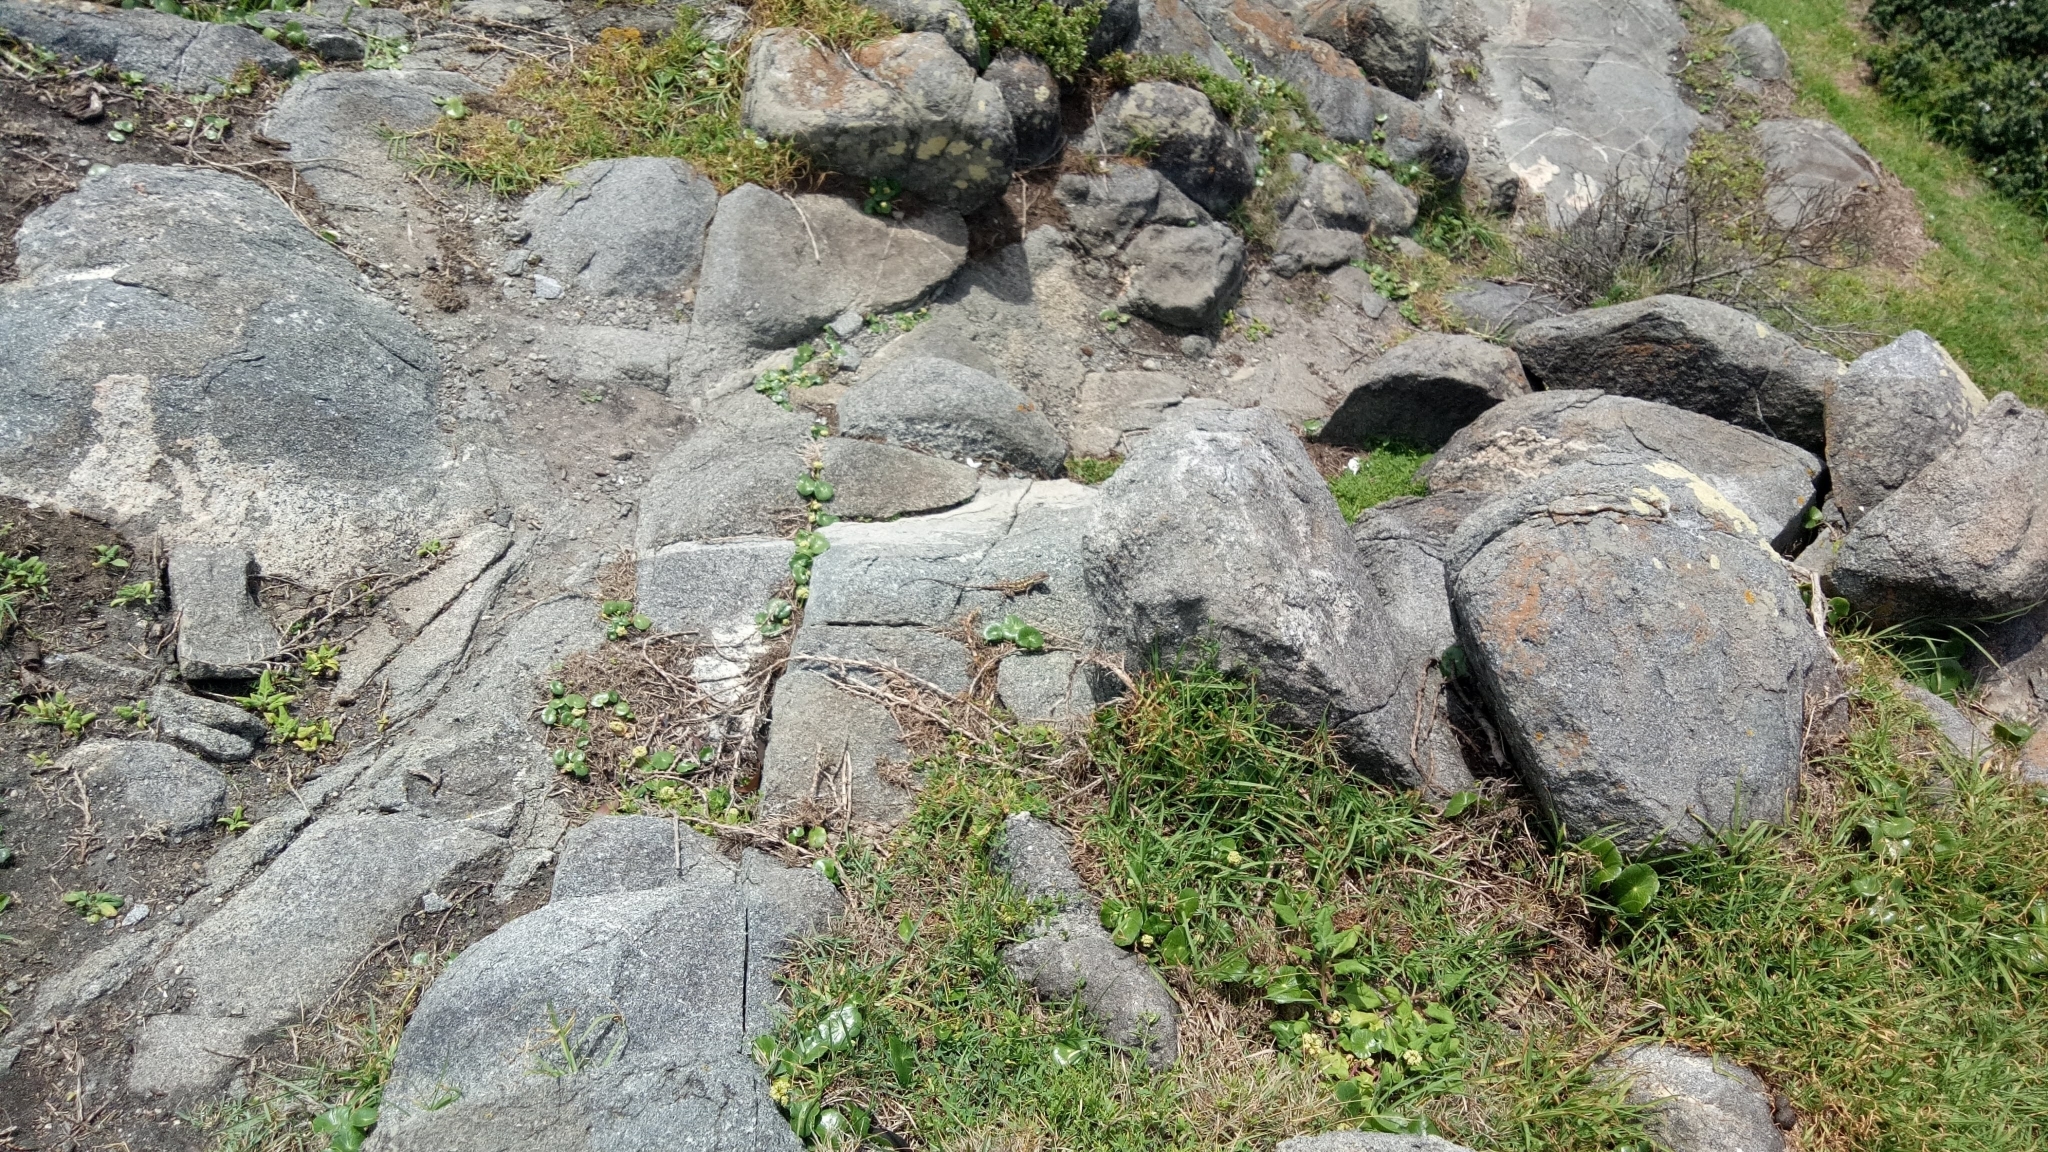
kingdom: Animalia
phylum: Chordata
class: Squamata
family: Agamidae
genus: Amphibolurus
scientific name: Amphibolurus muricatus
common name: Jacky lizard
